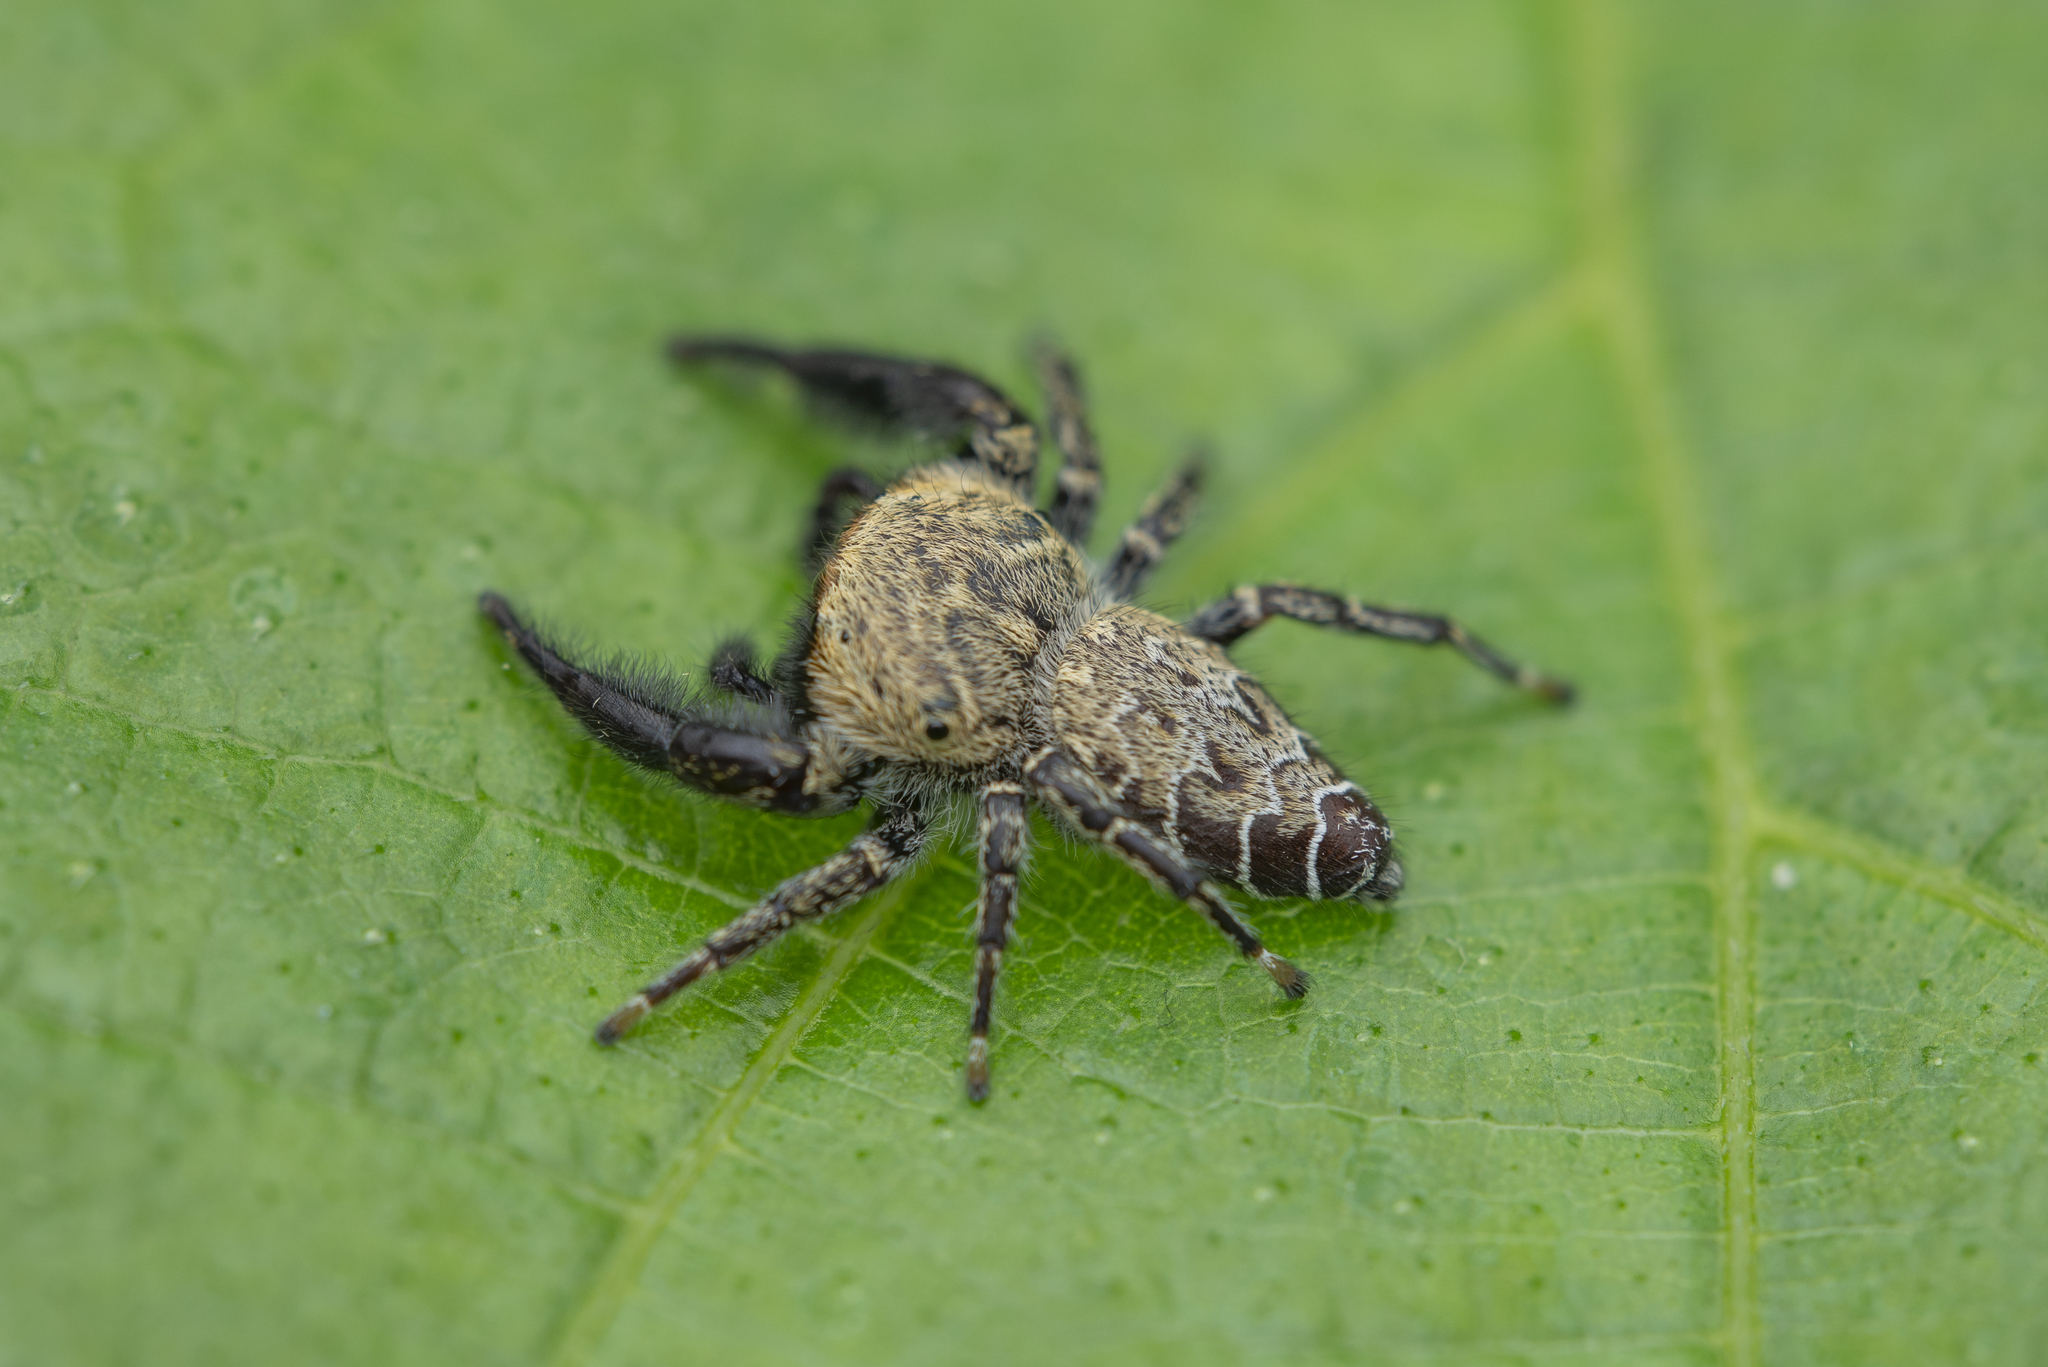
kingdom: Animalia
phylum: Arthropoda
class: Arachnida
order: Araneae
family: Salticidae
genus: Rhene
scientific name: Rhene rubrigera
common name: Jumping spider
